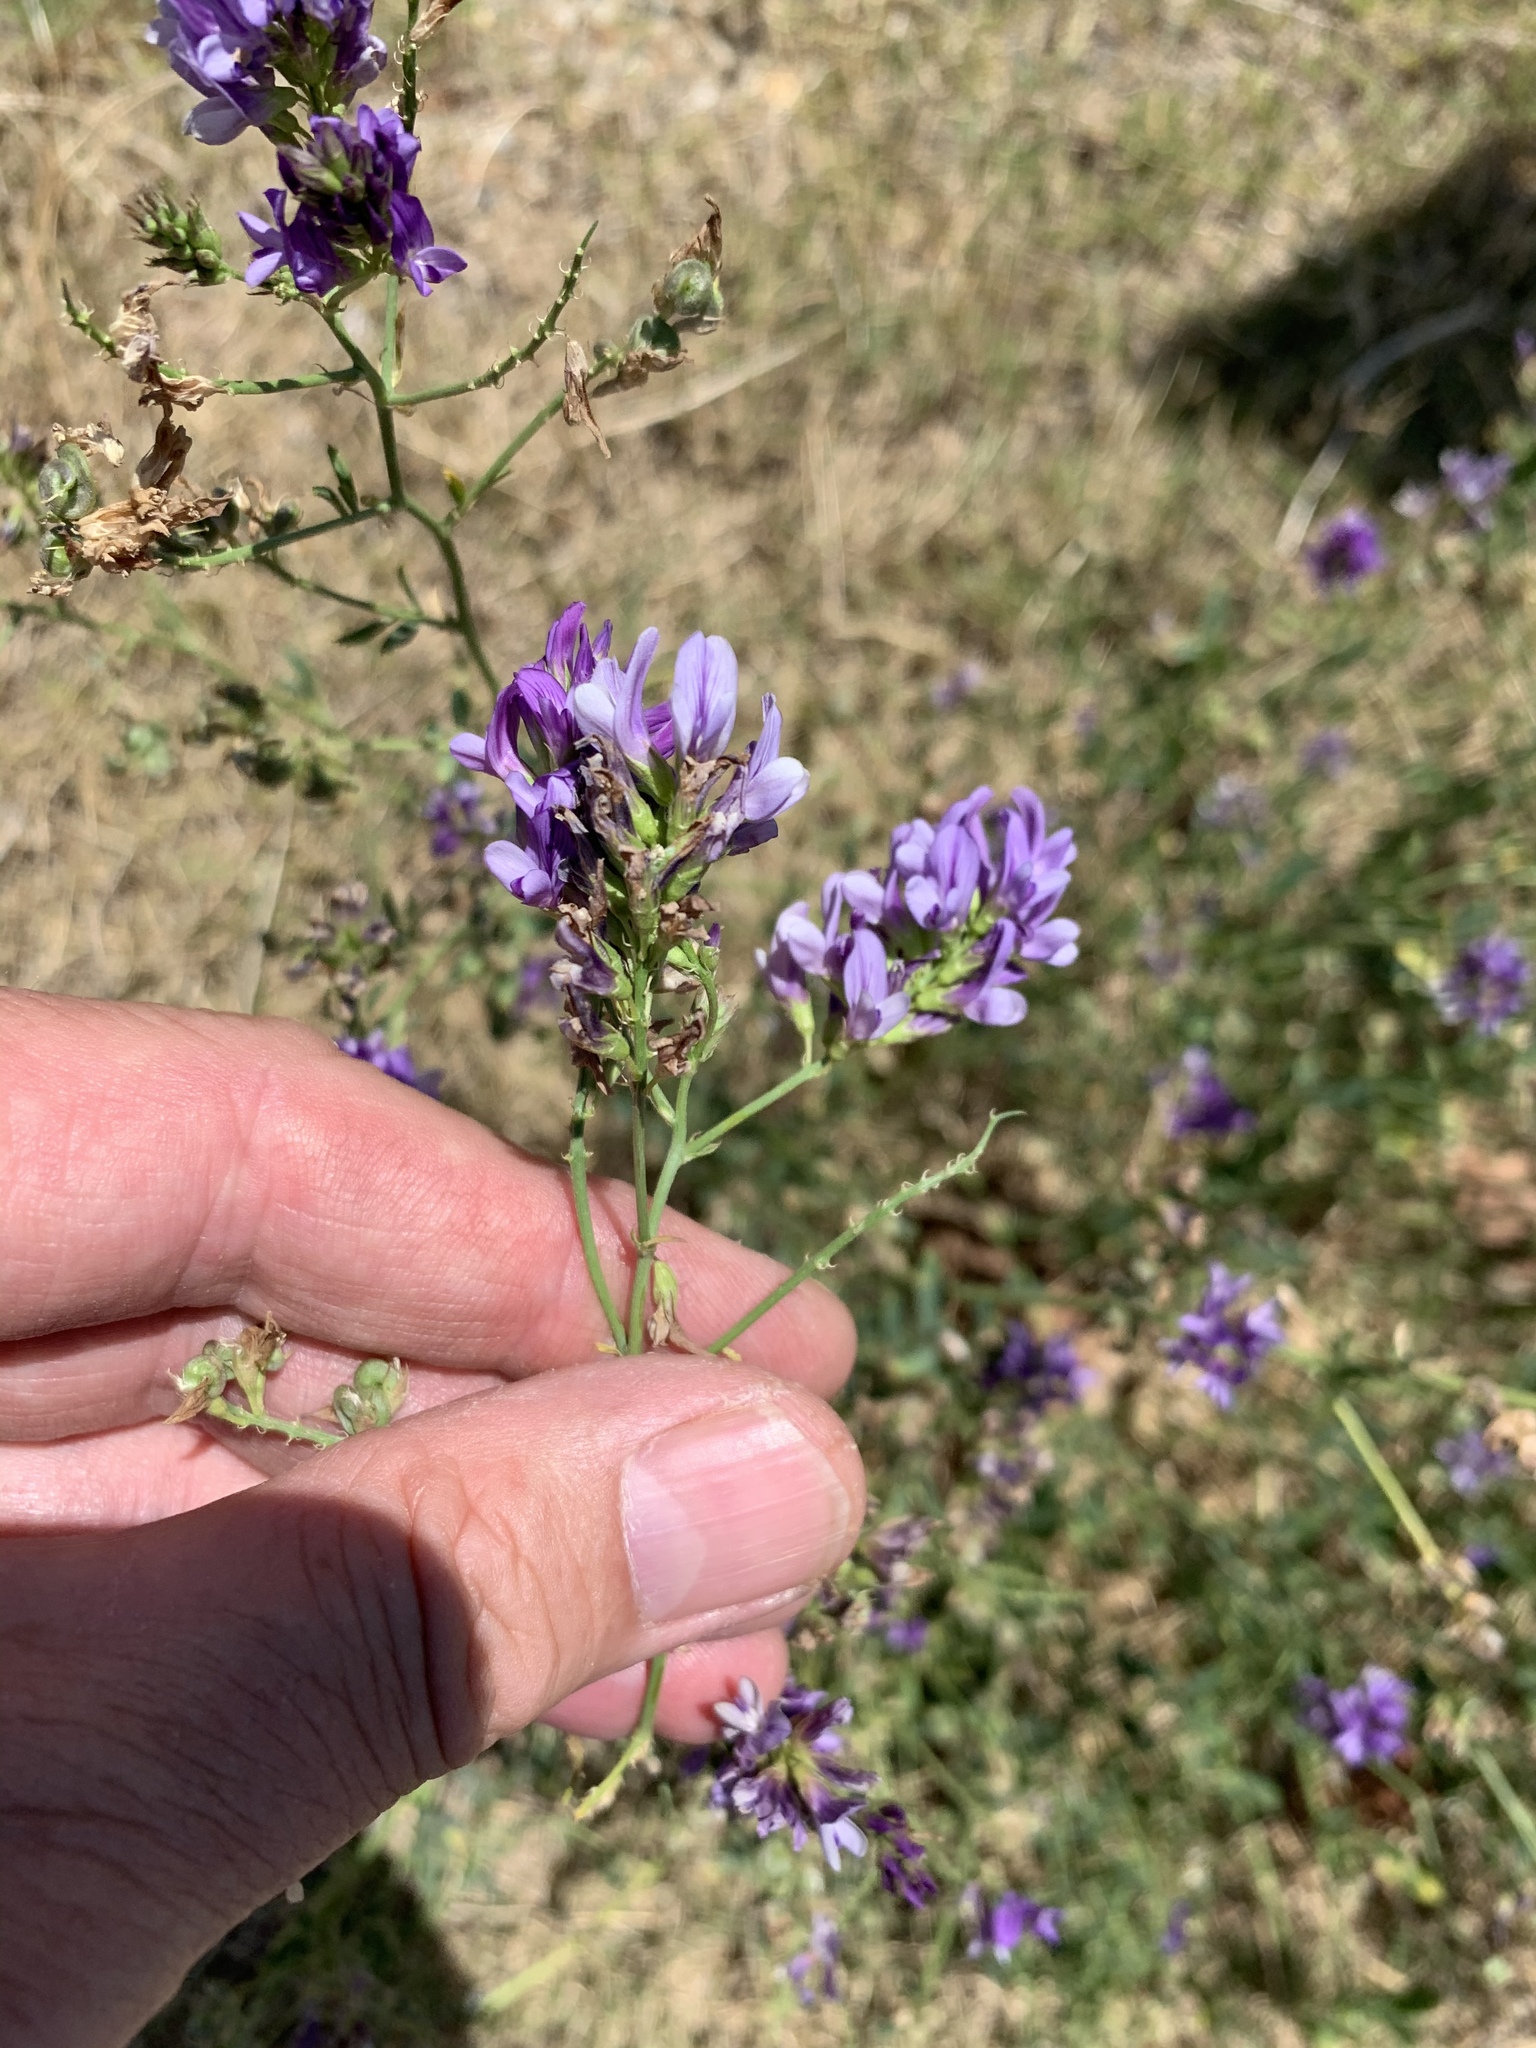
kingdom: Plantae
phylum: Tracheophyta
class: Magnoliopsida
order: Fabales
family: Fabaceae
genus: Medicago
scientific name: Medicago sativa
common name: Alfalfa
